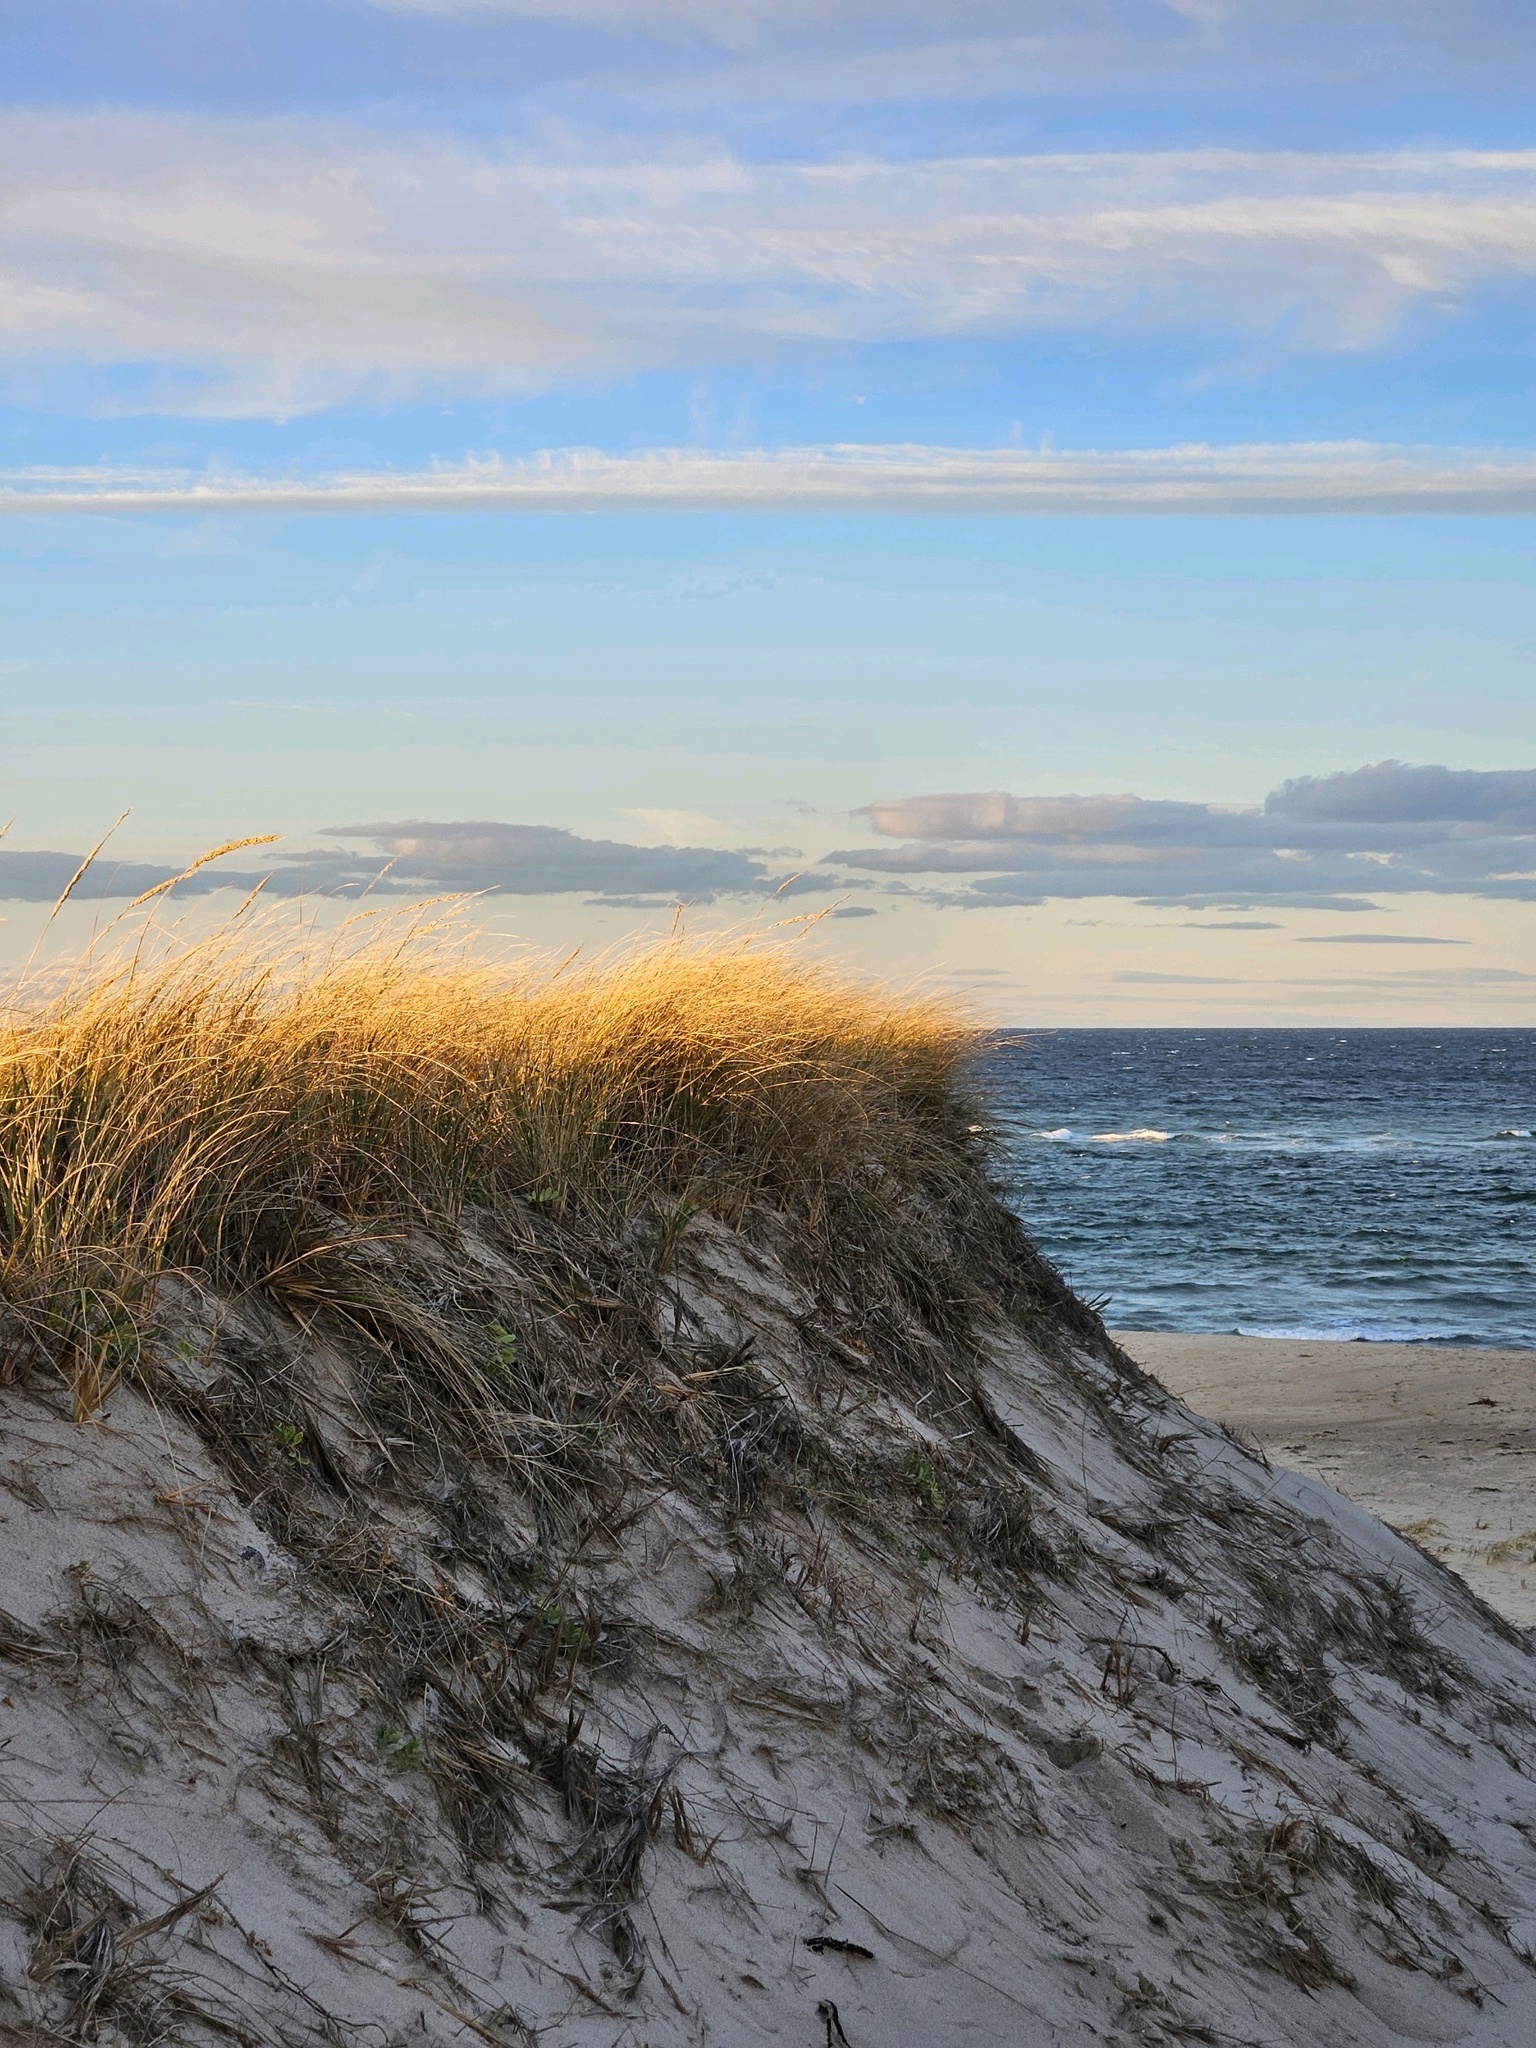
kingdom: Plantae
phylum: Tracheophyta
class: Liliopsida
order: Poales
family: Poaceae
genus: Calamagrostis
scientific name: Calamagrostis breviligulata
